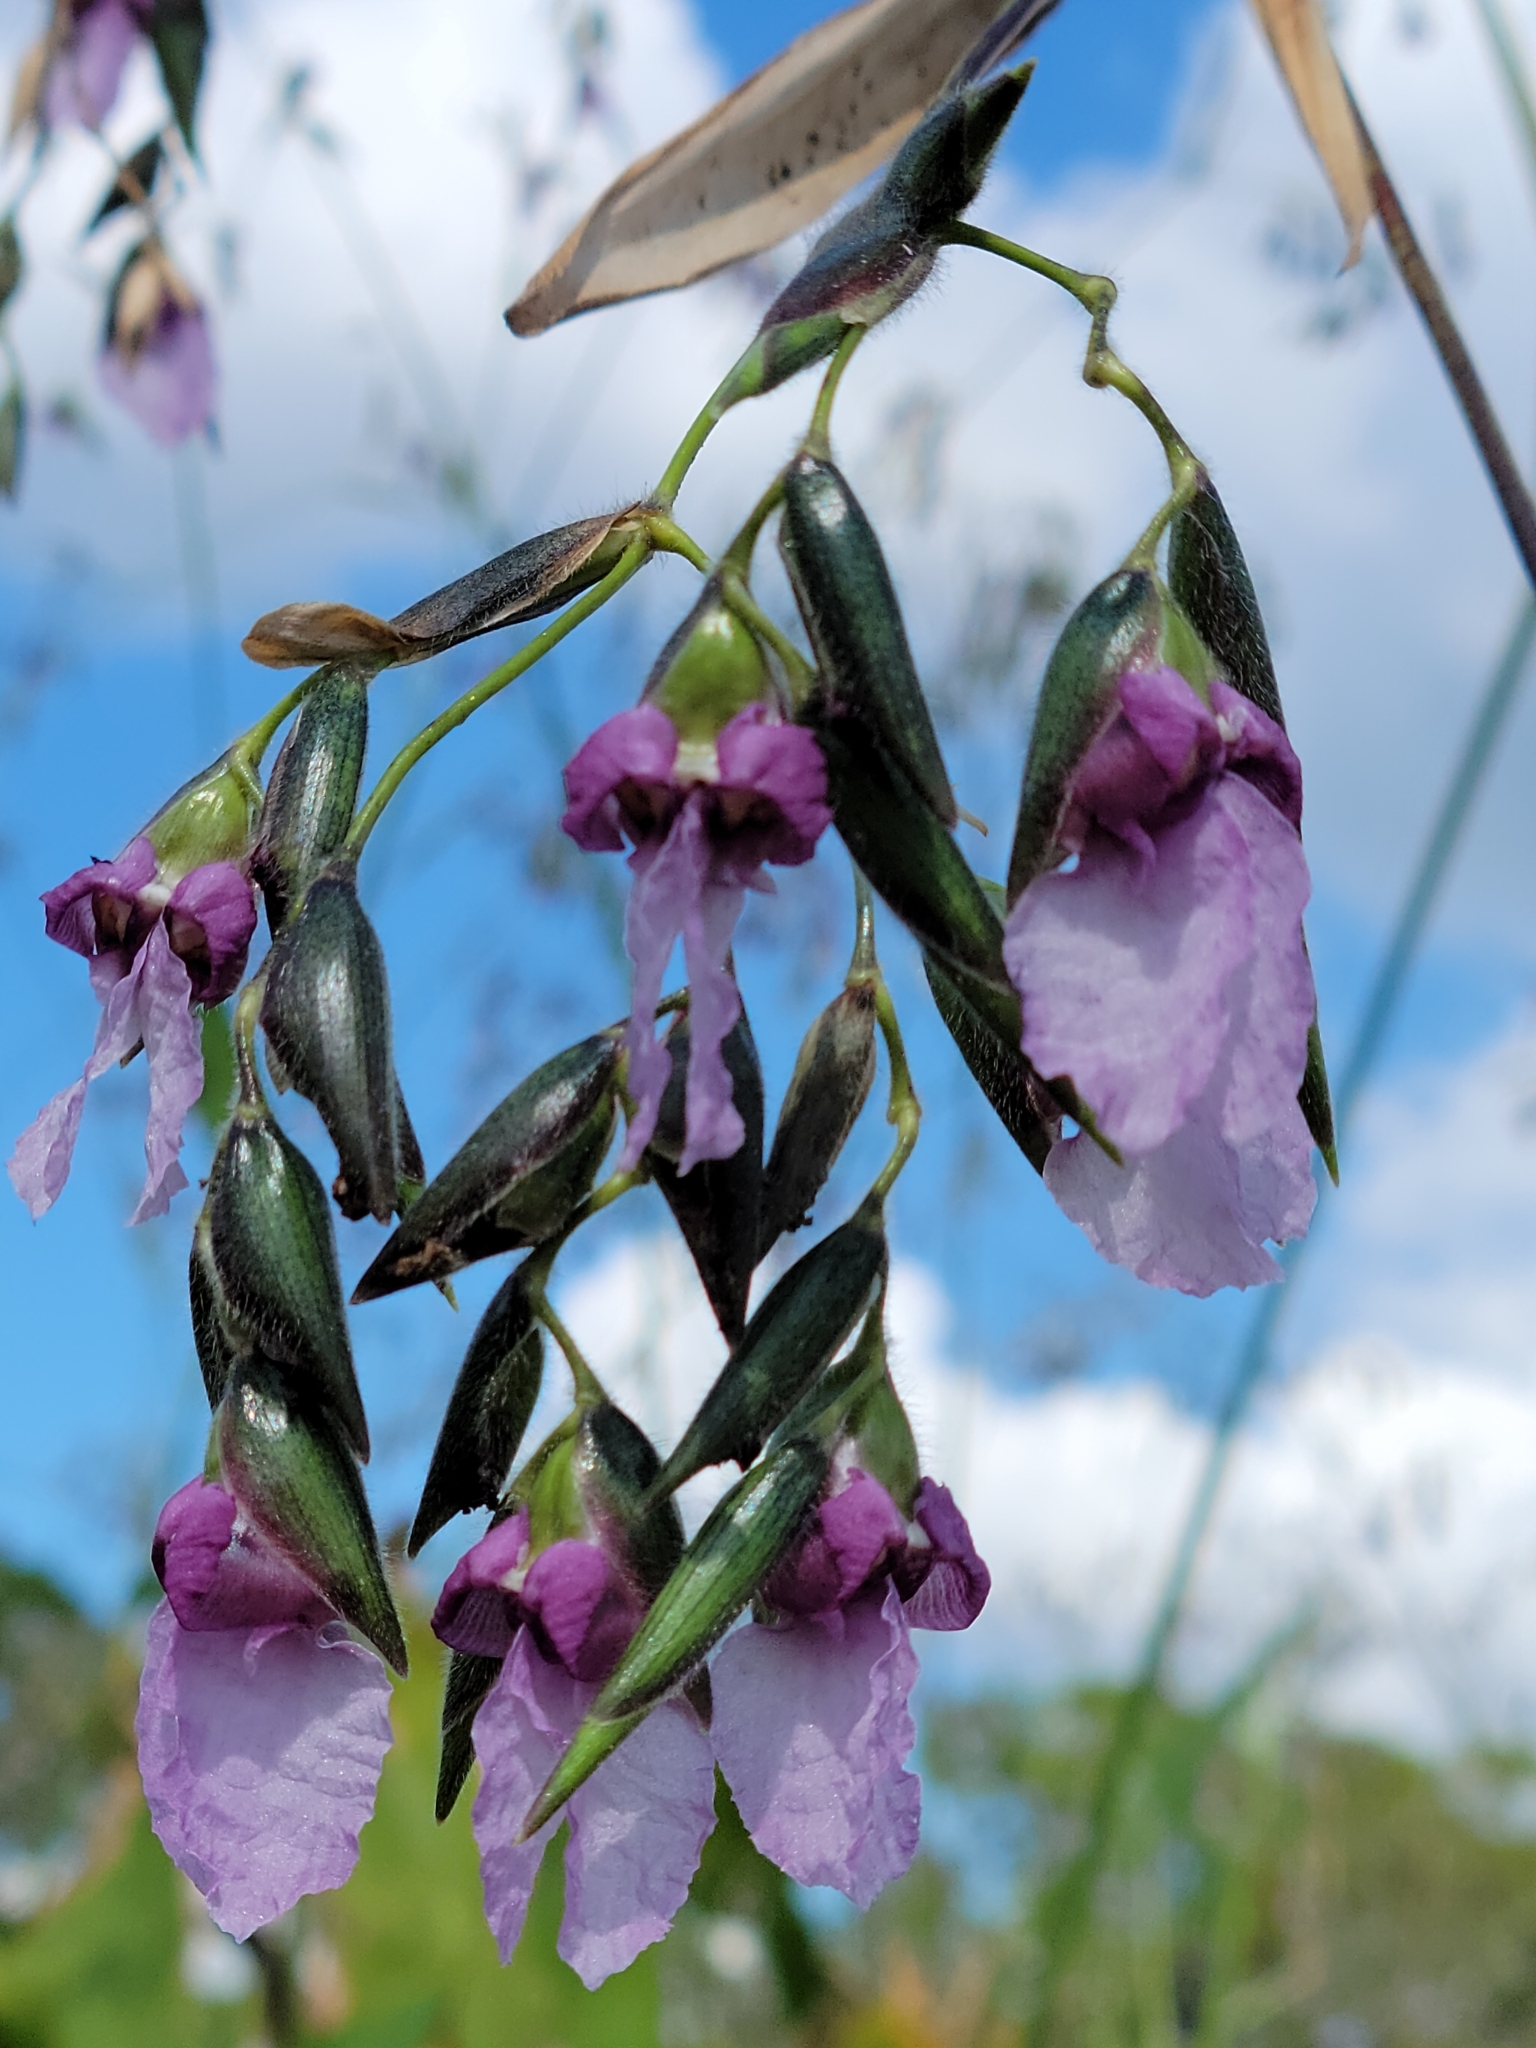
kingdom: Plantae
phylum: Tracheophyta
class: Liliopsida
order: Zingiberales
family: Marantaceae
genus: Thalia
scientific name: Thalia geniculata
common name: Arrowroot
